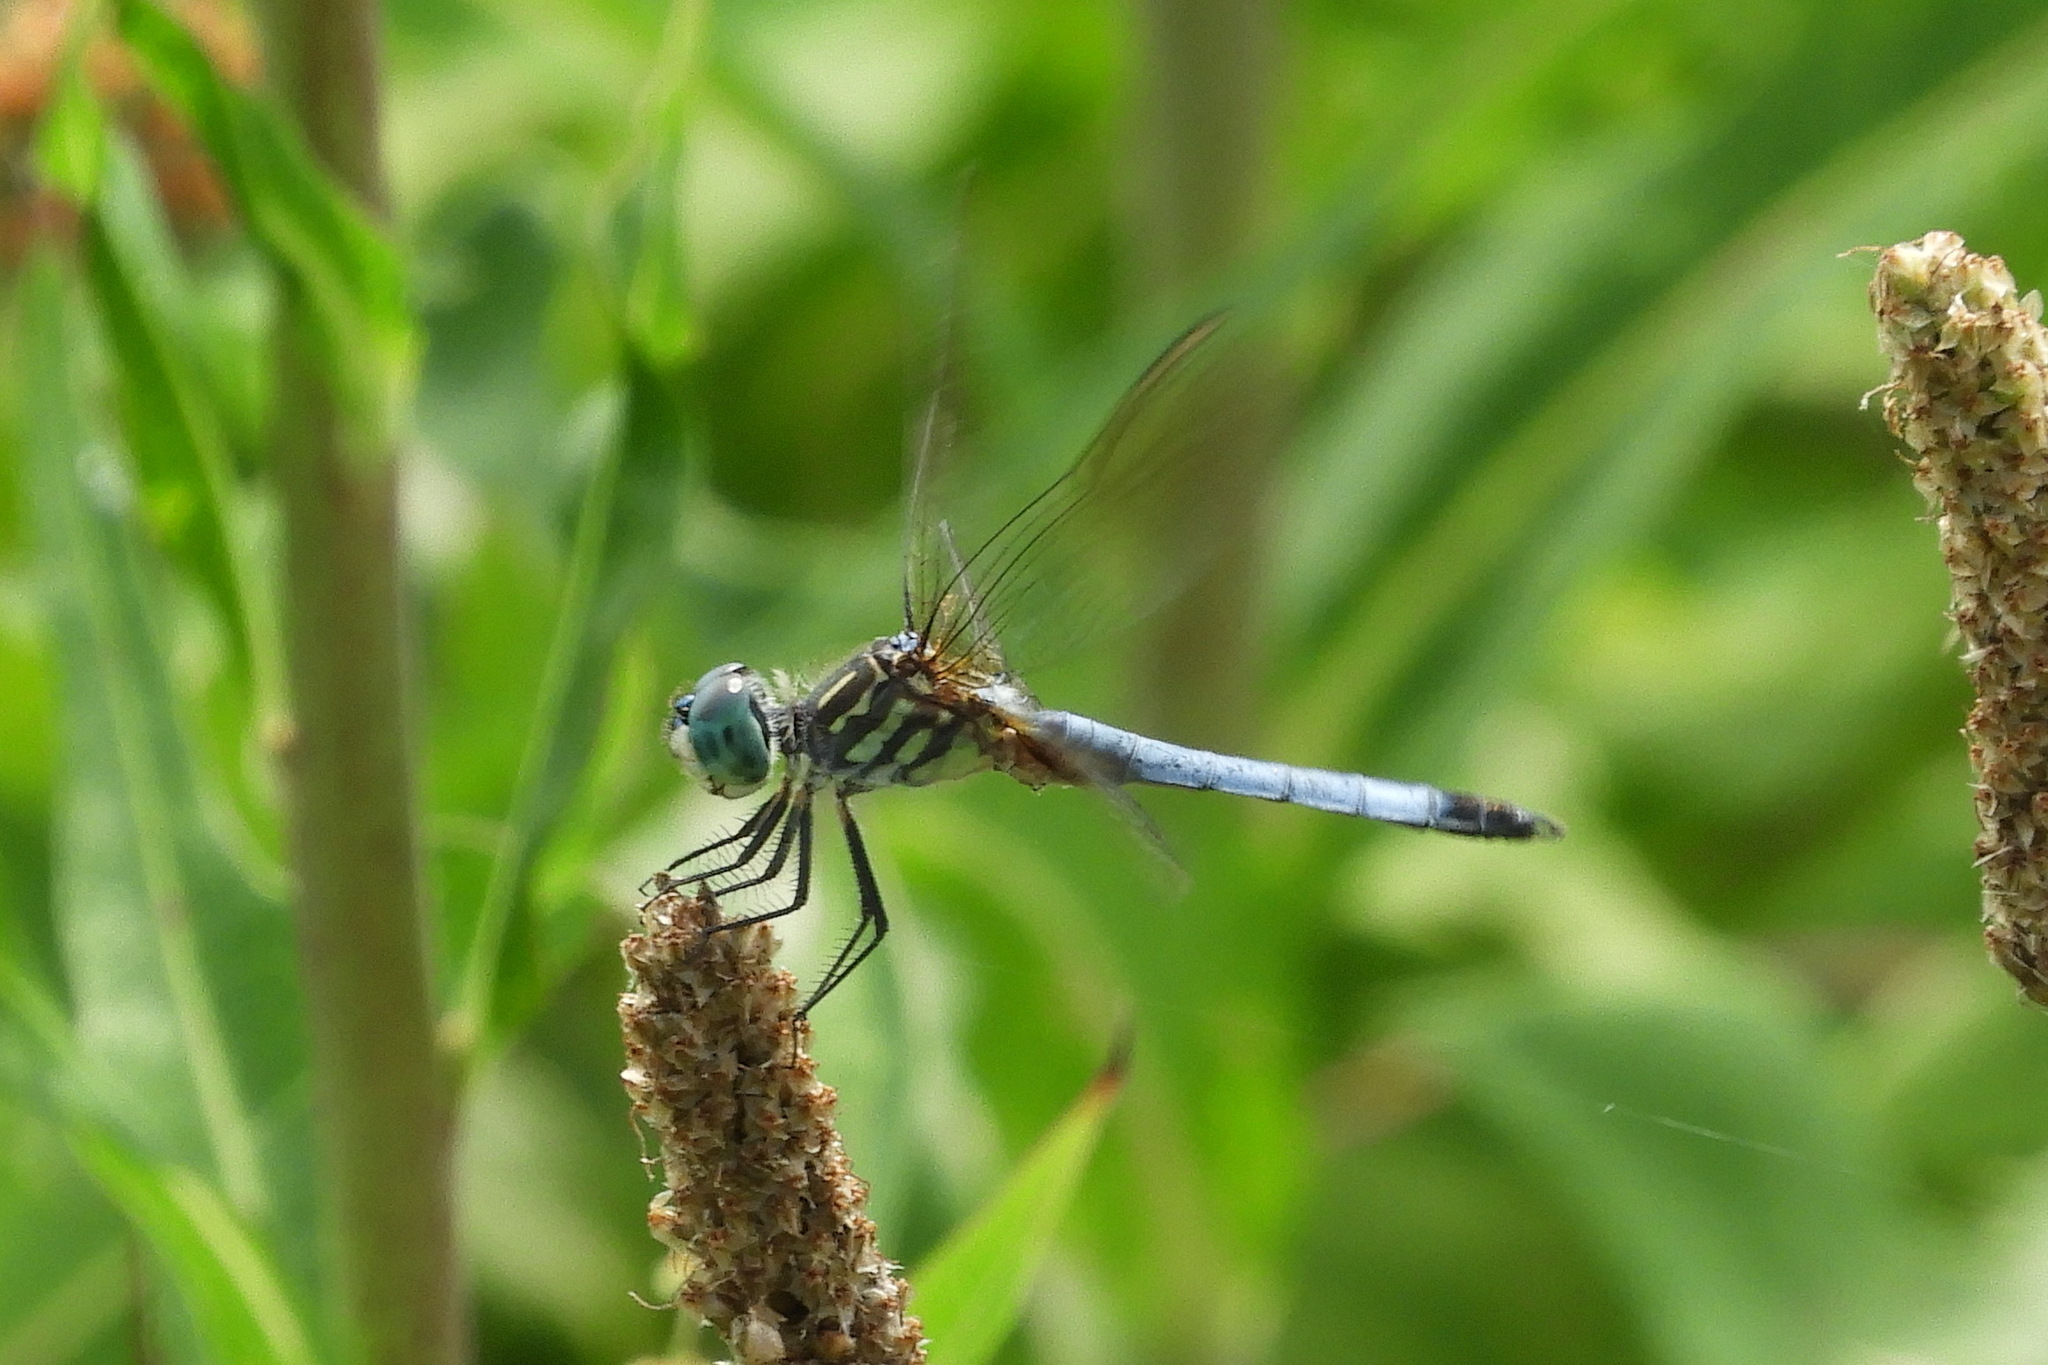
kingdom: Animalia
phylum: Arthropoda
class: Insecta
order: Odonata
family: Libellulidae
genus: Pachydiplax
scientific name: Pachydiplax longipennis
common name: Blue dasher
